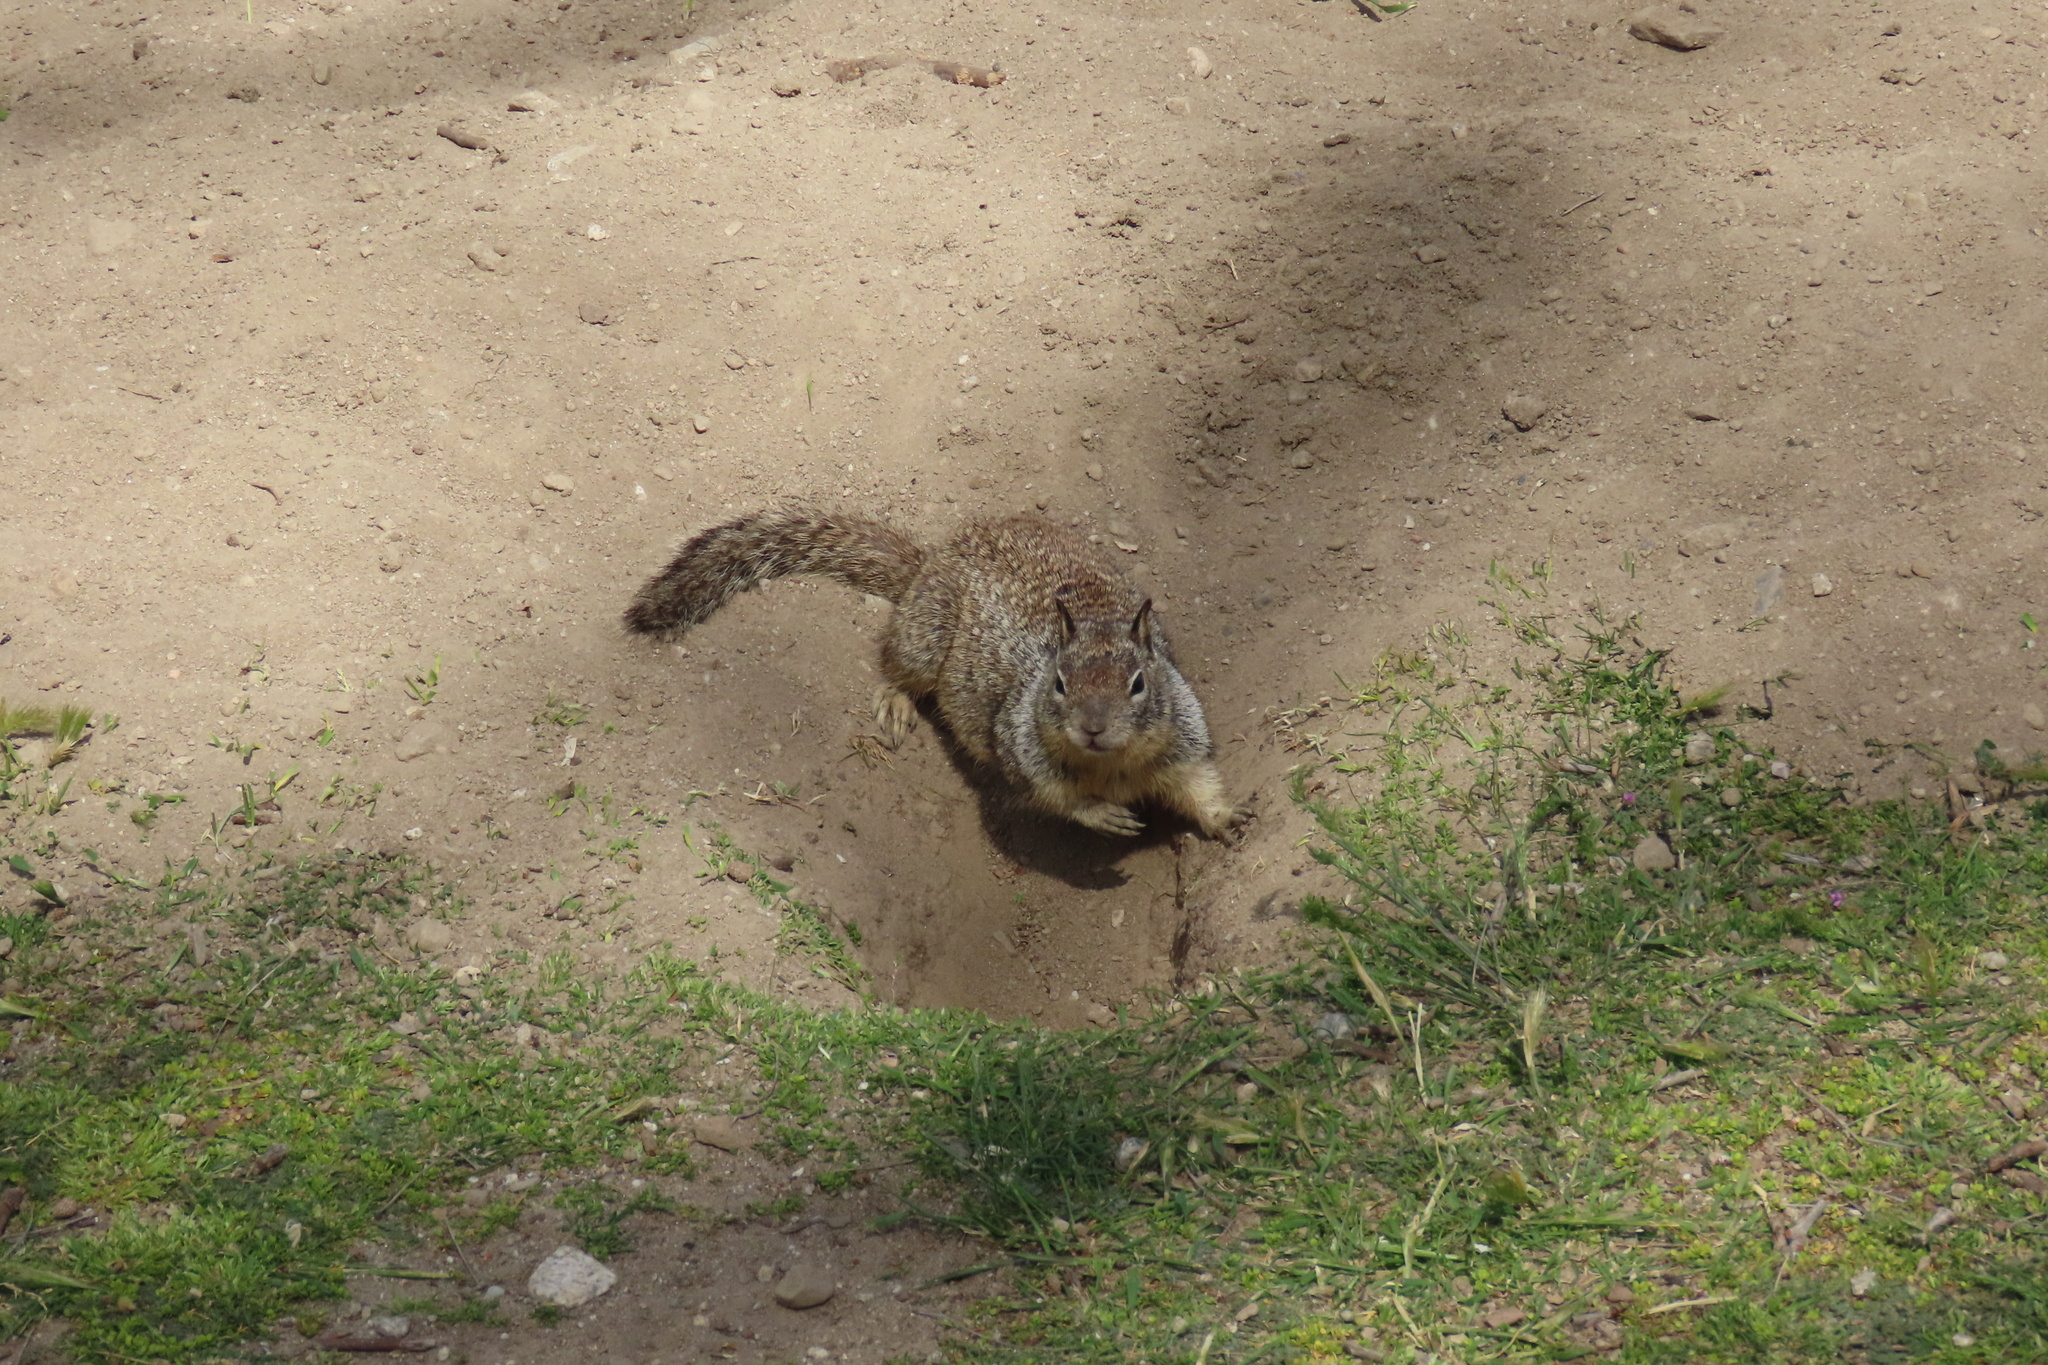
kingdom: Animalia
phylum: Chordata
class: Mammalia
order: Rodentia
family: Sciuridae
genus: Otospermophilus
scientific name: Otospermophilus beecheyi
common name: California ground squirrel
